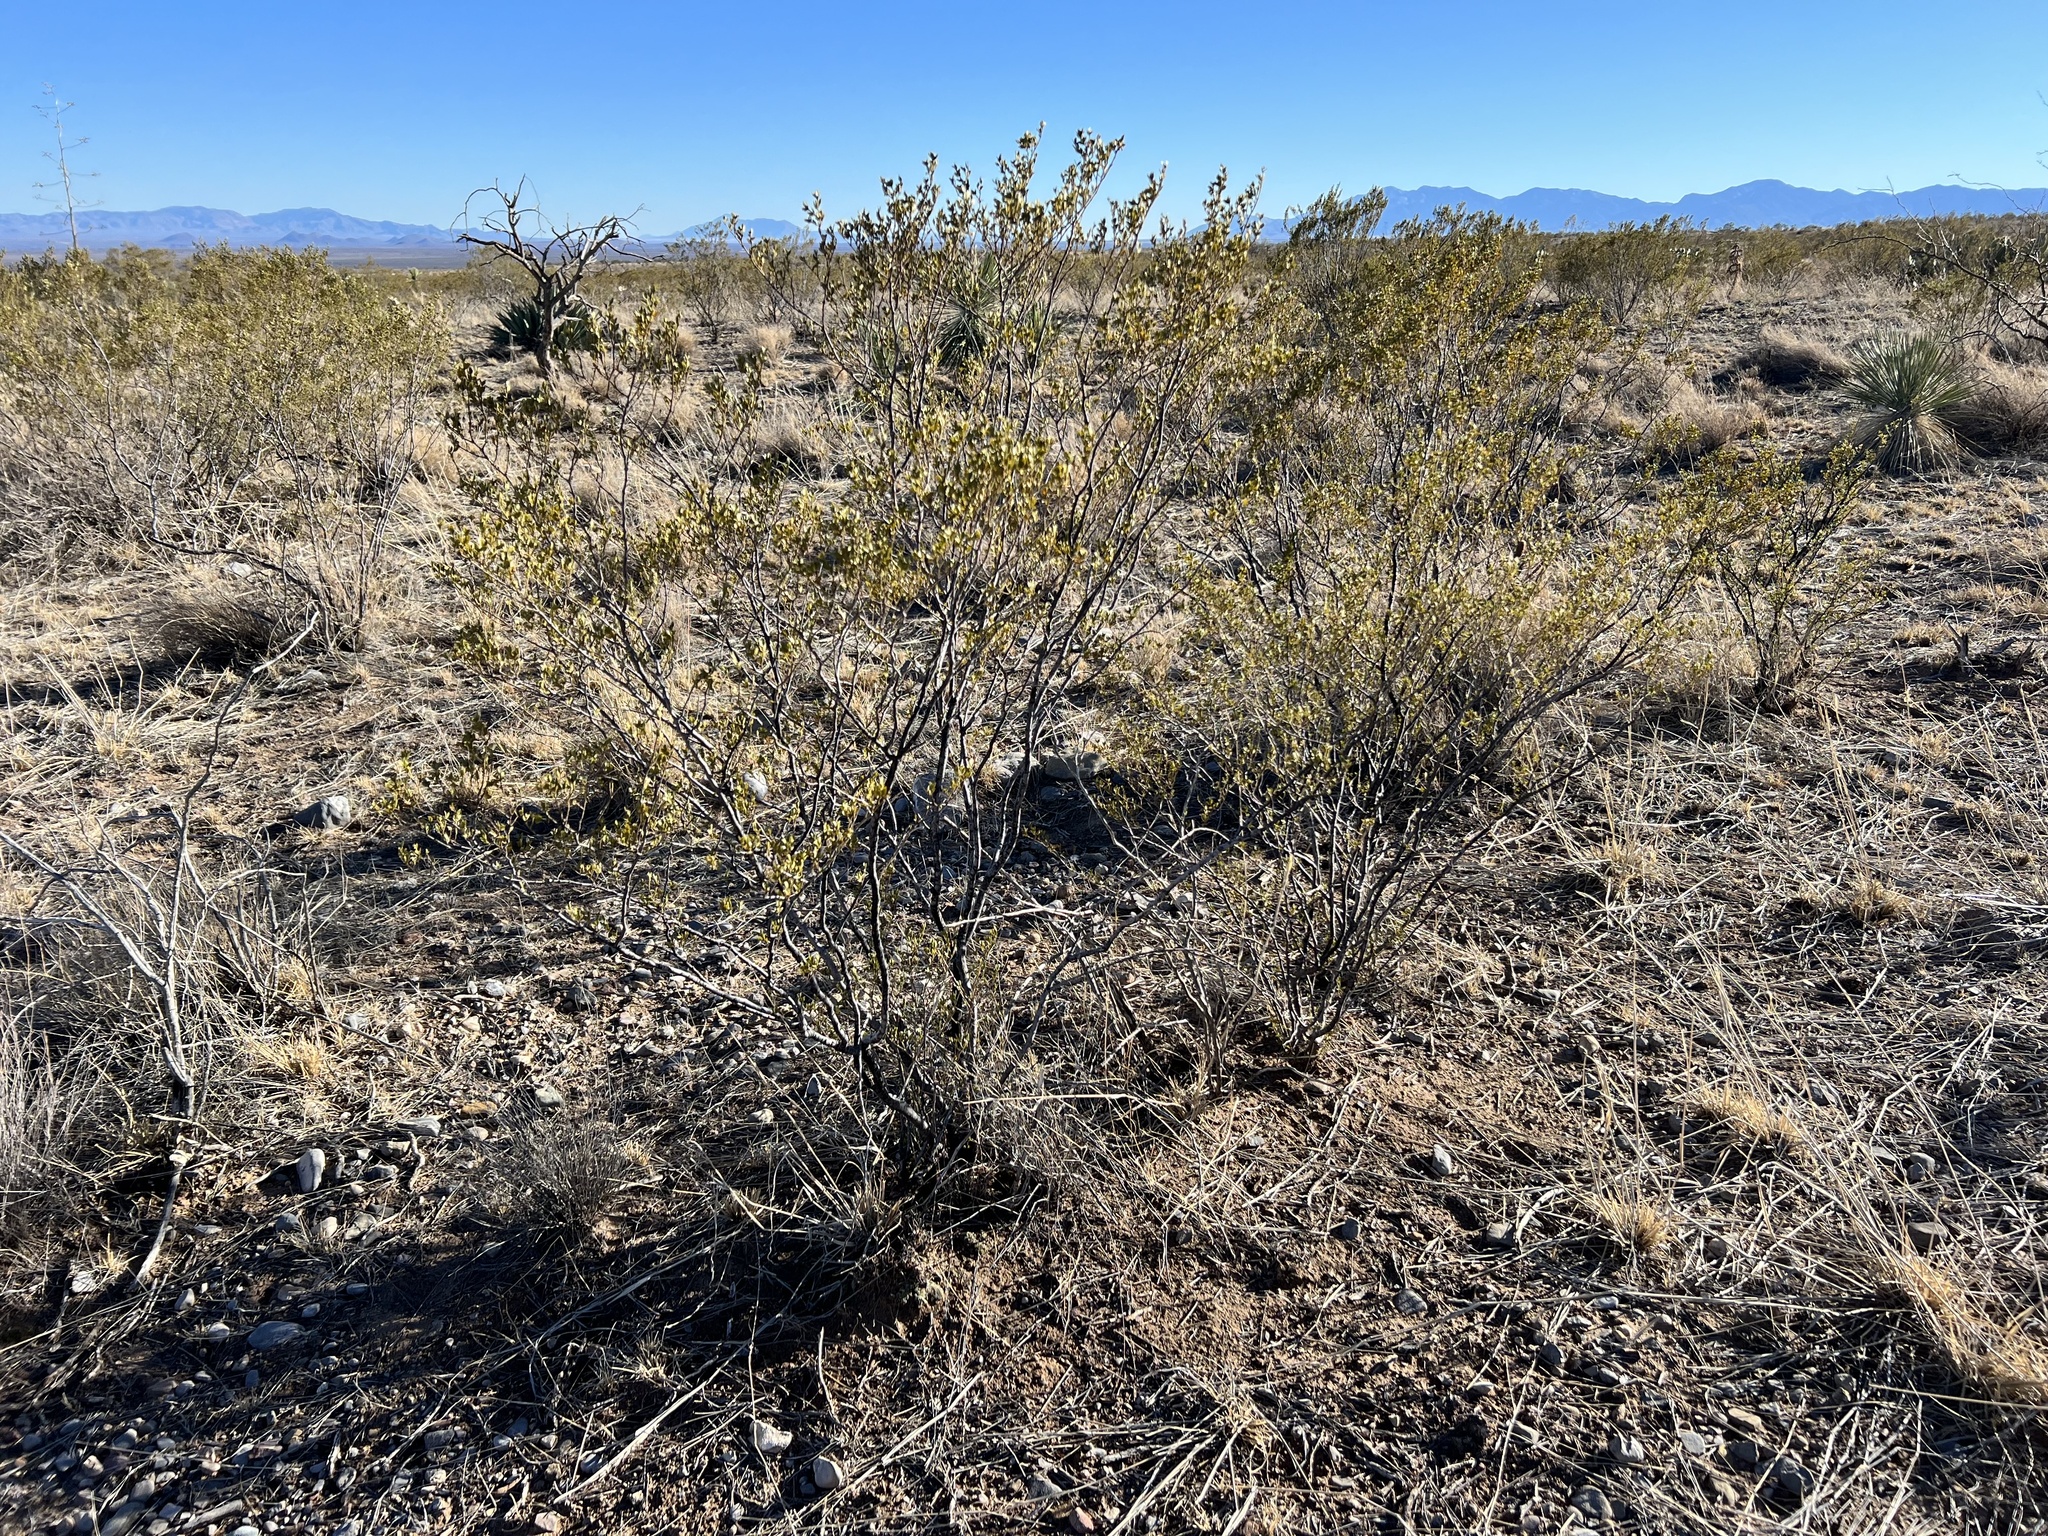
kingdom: Plantae
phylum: Tracheophyta
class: Magnoliopsida
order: Zygophyllales
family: Zygophyllaceae
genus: Larrea
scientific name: Larrea tridentata
